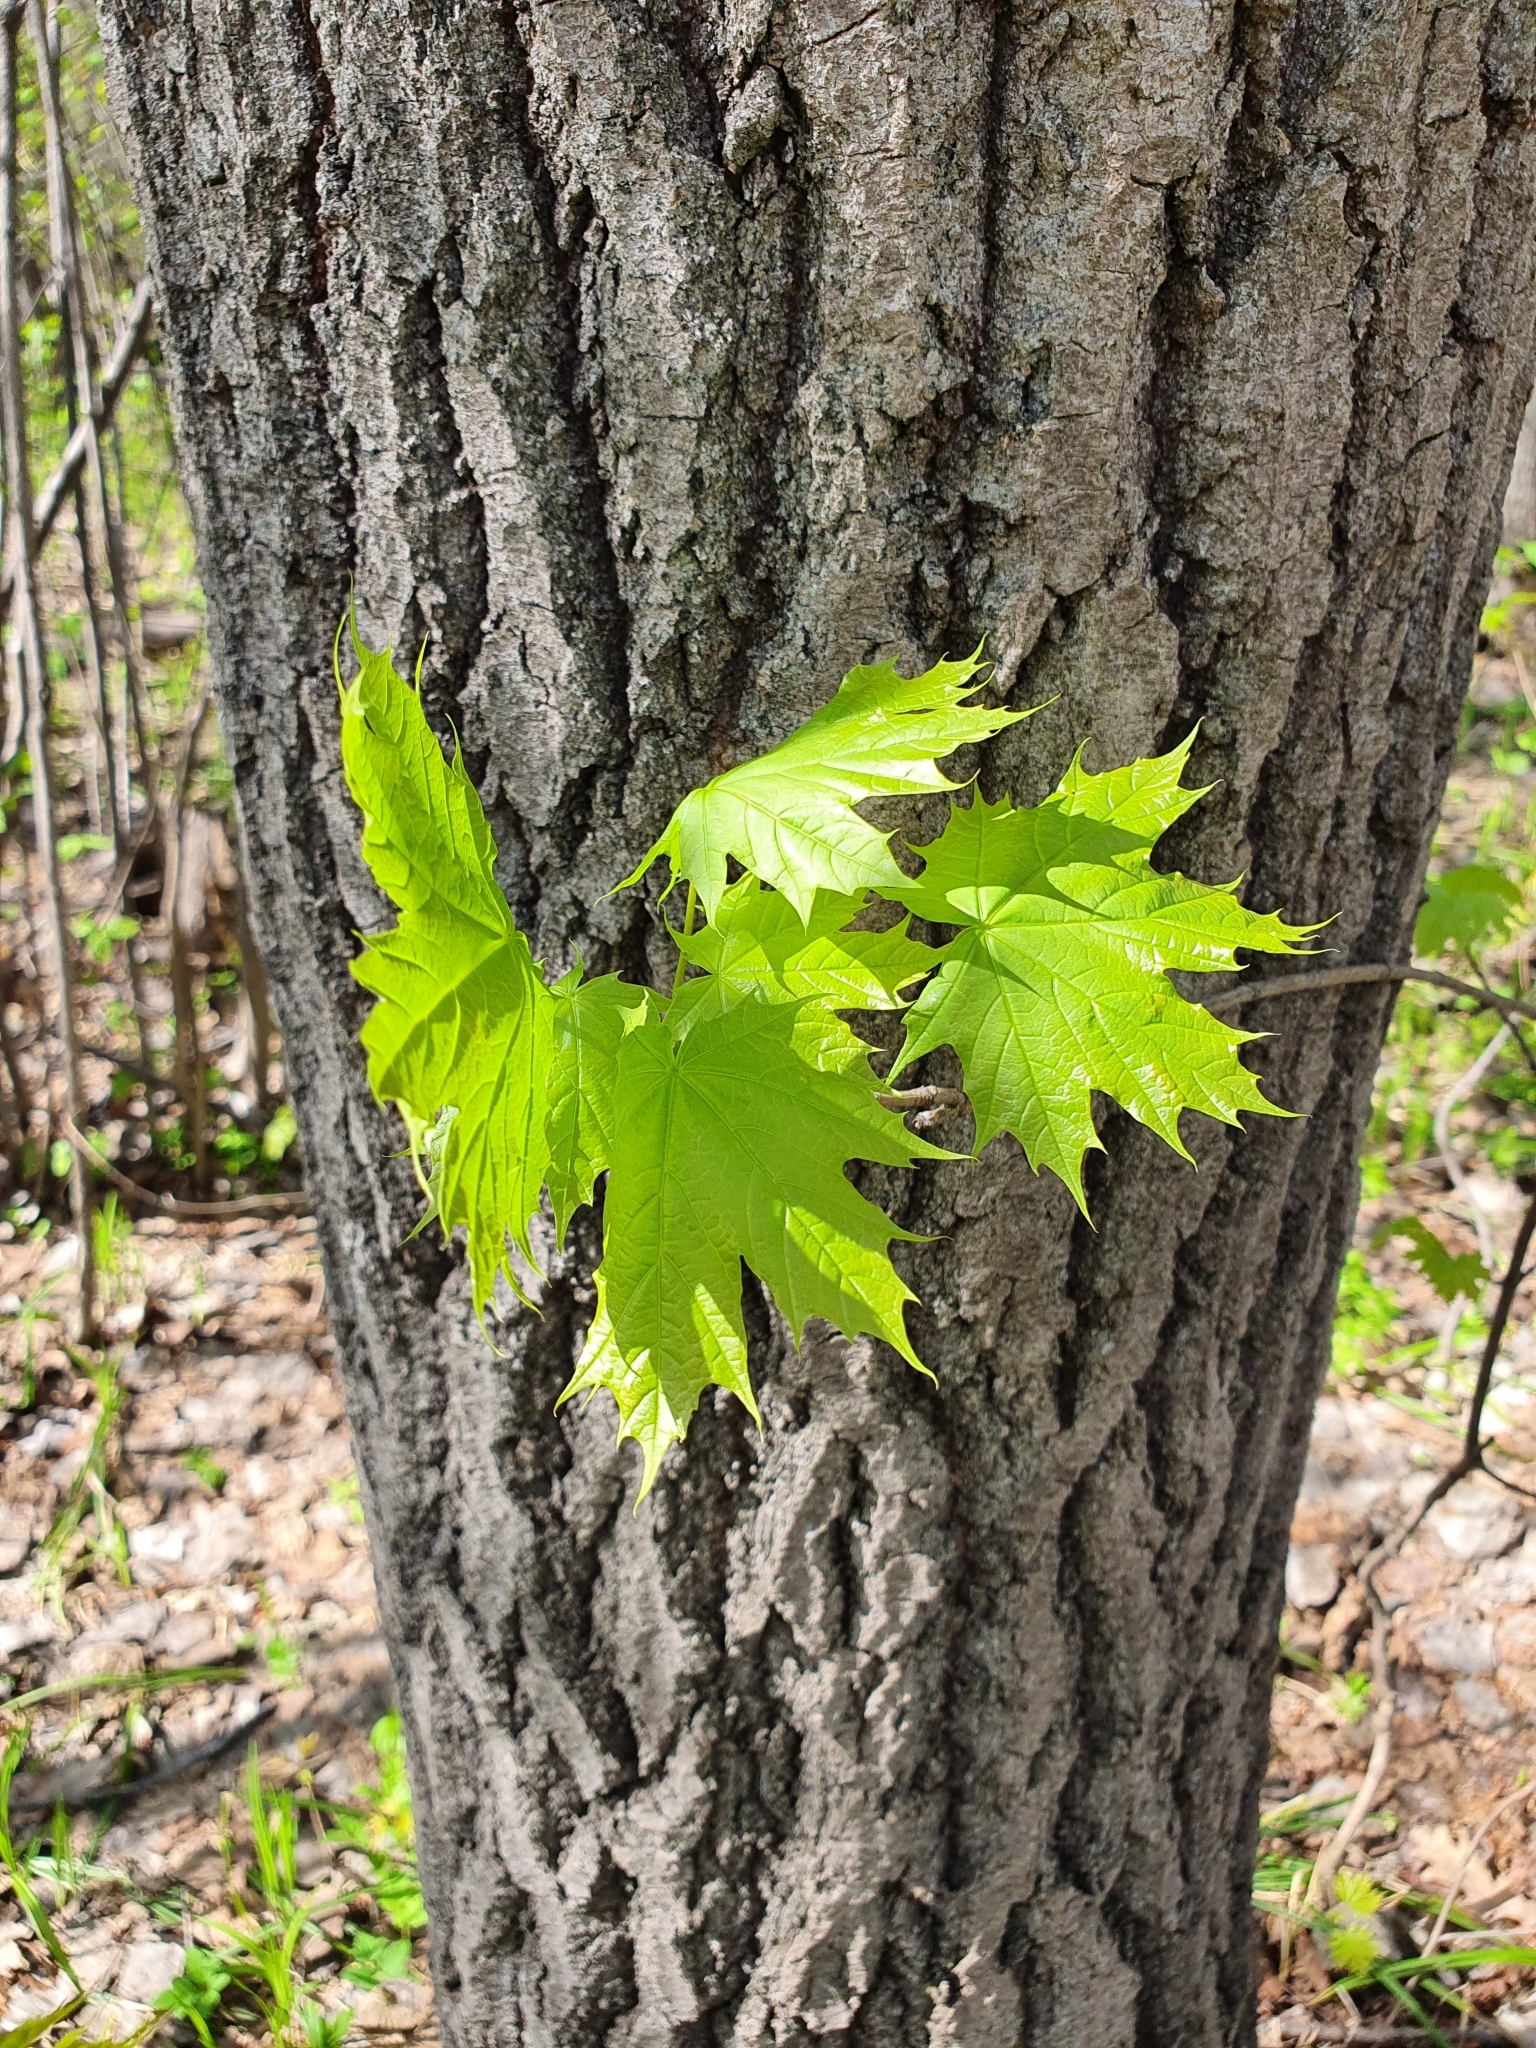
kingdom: Plantae
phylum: Tracheophyta
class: Magnoliopsida
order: Sapindales
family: Sapindaceae
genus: Acer
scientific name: Acer platanoides
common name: Norway maple
